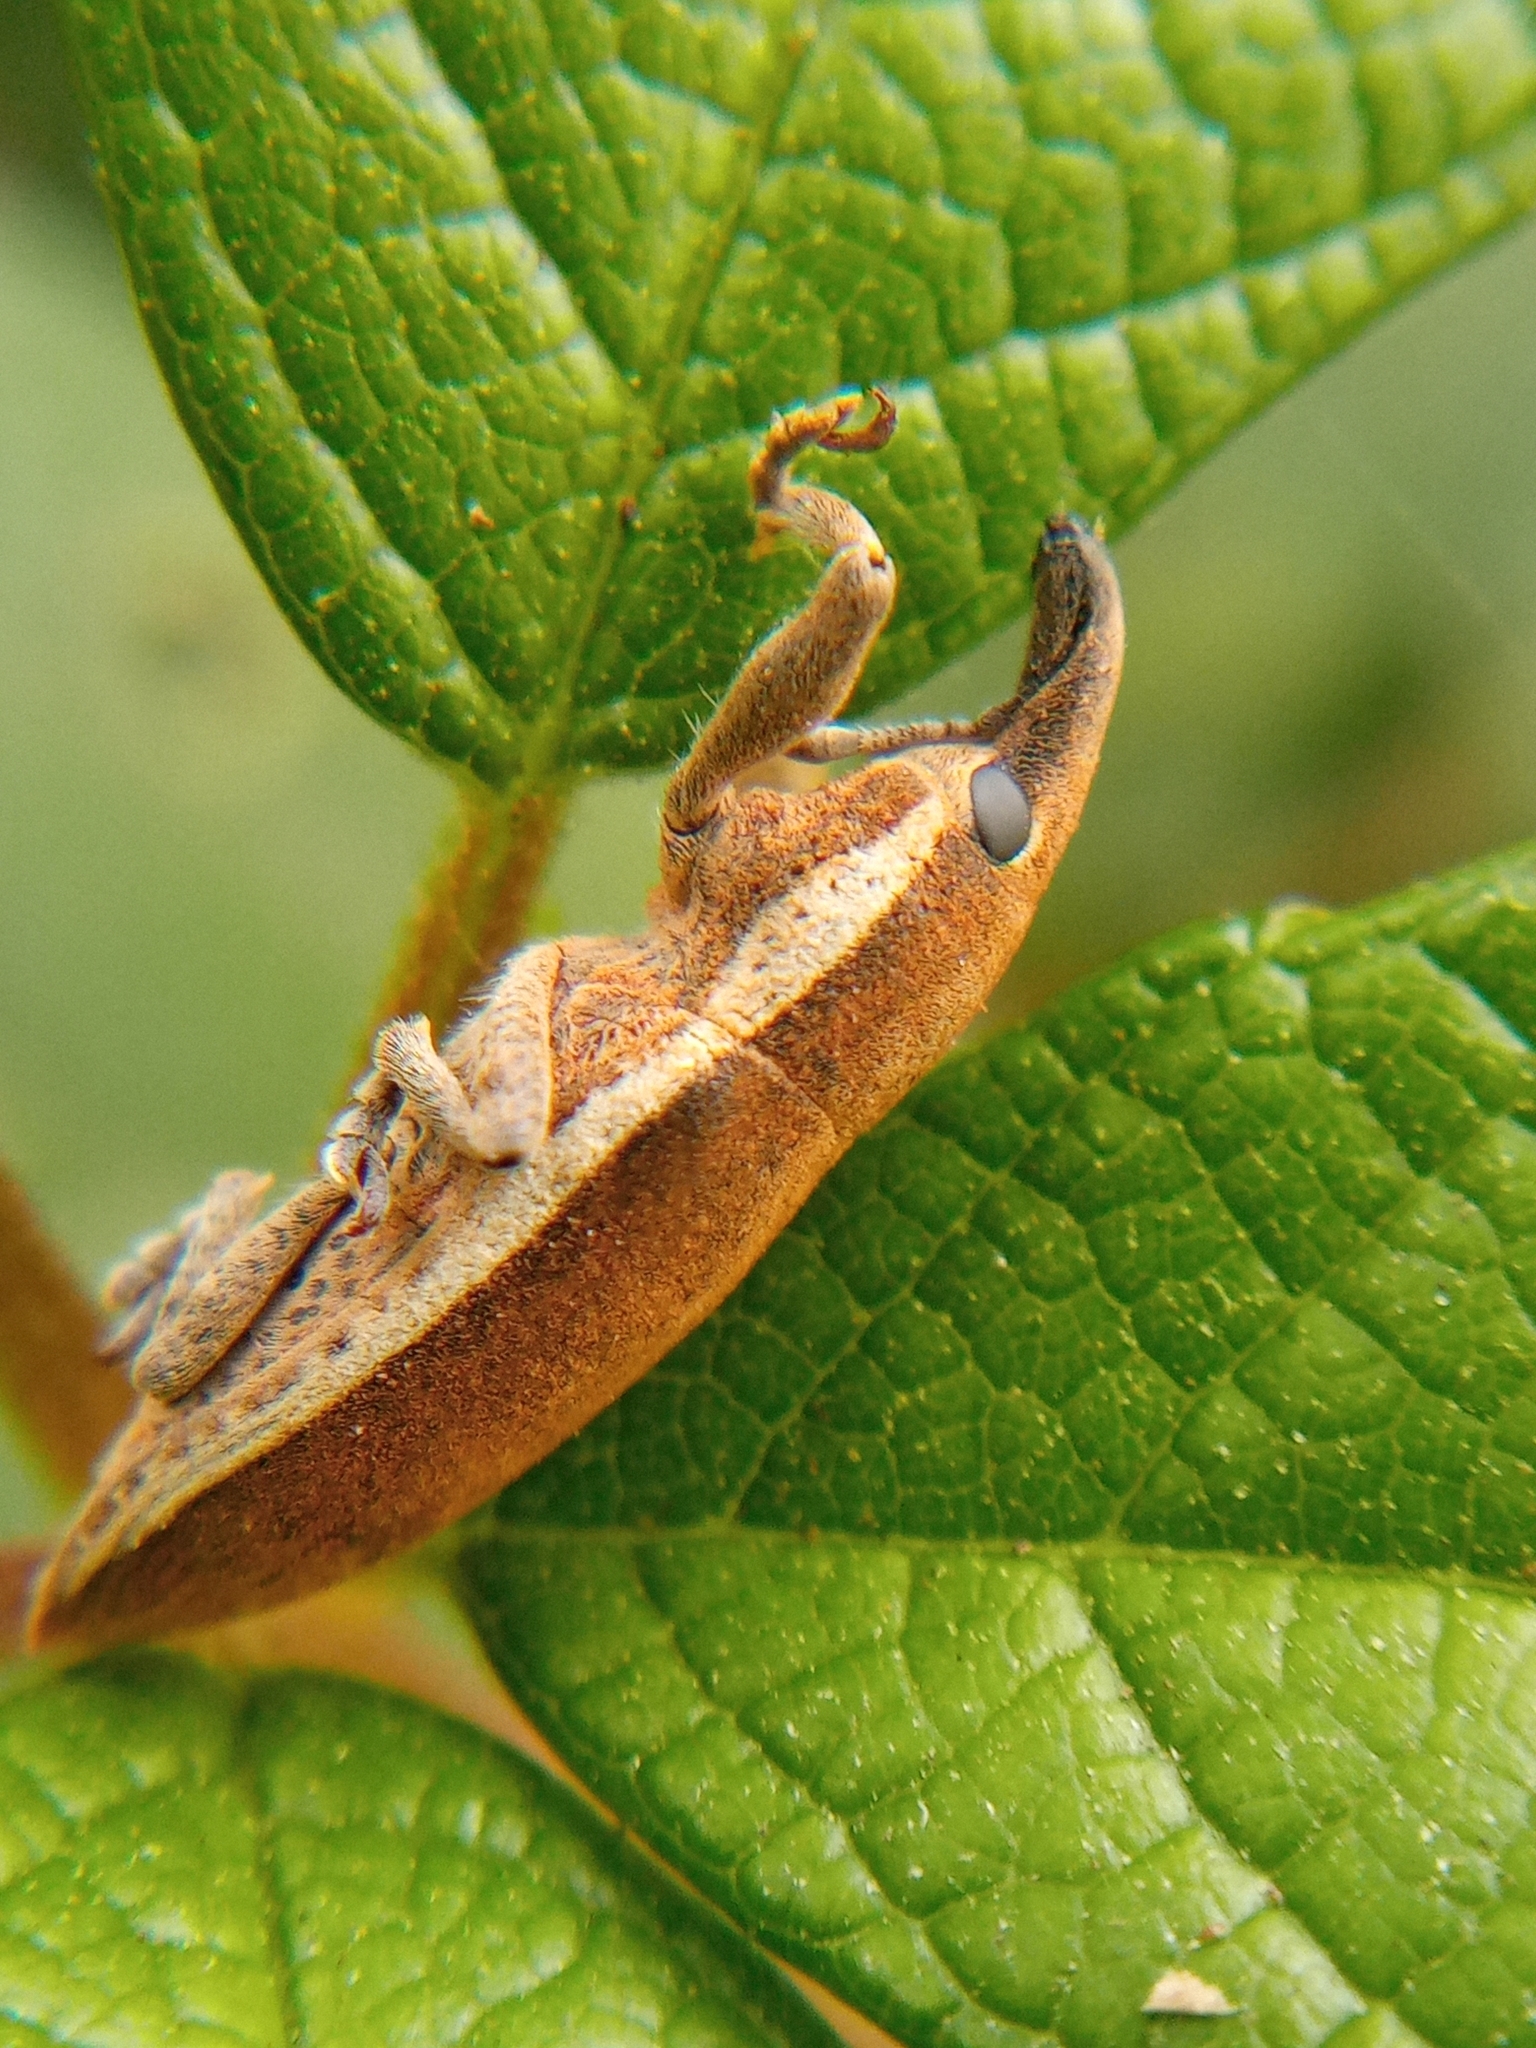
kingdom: Animalia
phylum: Arthropoda
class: Insecta
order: Coleoptera
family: Curculionidae
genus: Lixus
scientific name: Lixus ochraceus
